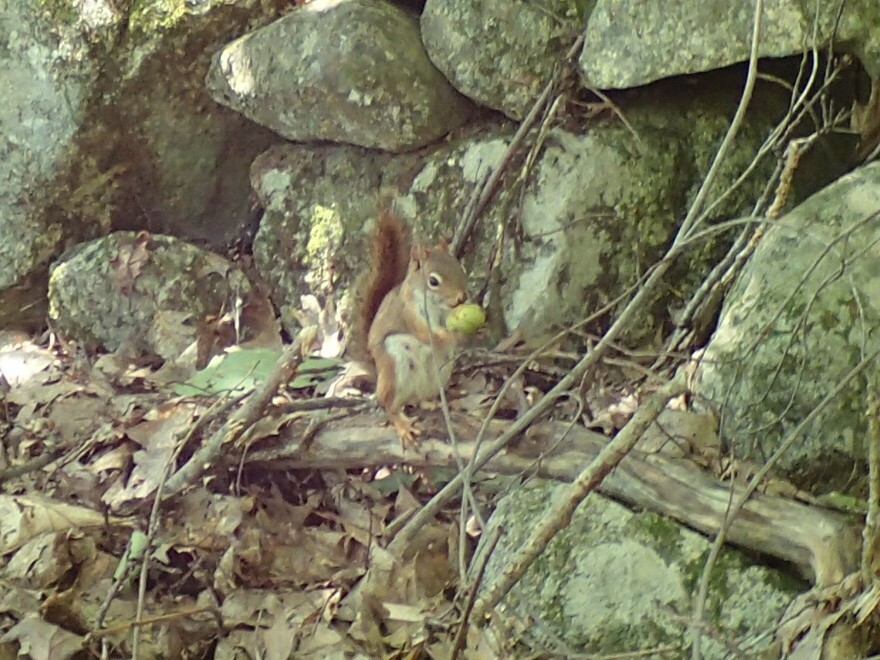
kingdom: Animalia
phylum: Chordata
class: Mammalia
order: Rodentia
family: Sciuridae
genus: Tamiasciurus
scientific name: Tamiasciurus hudsonicus
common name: Red squirrel
